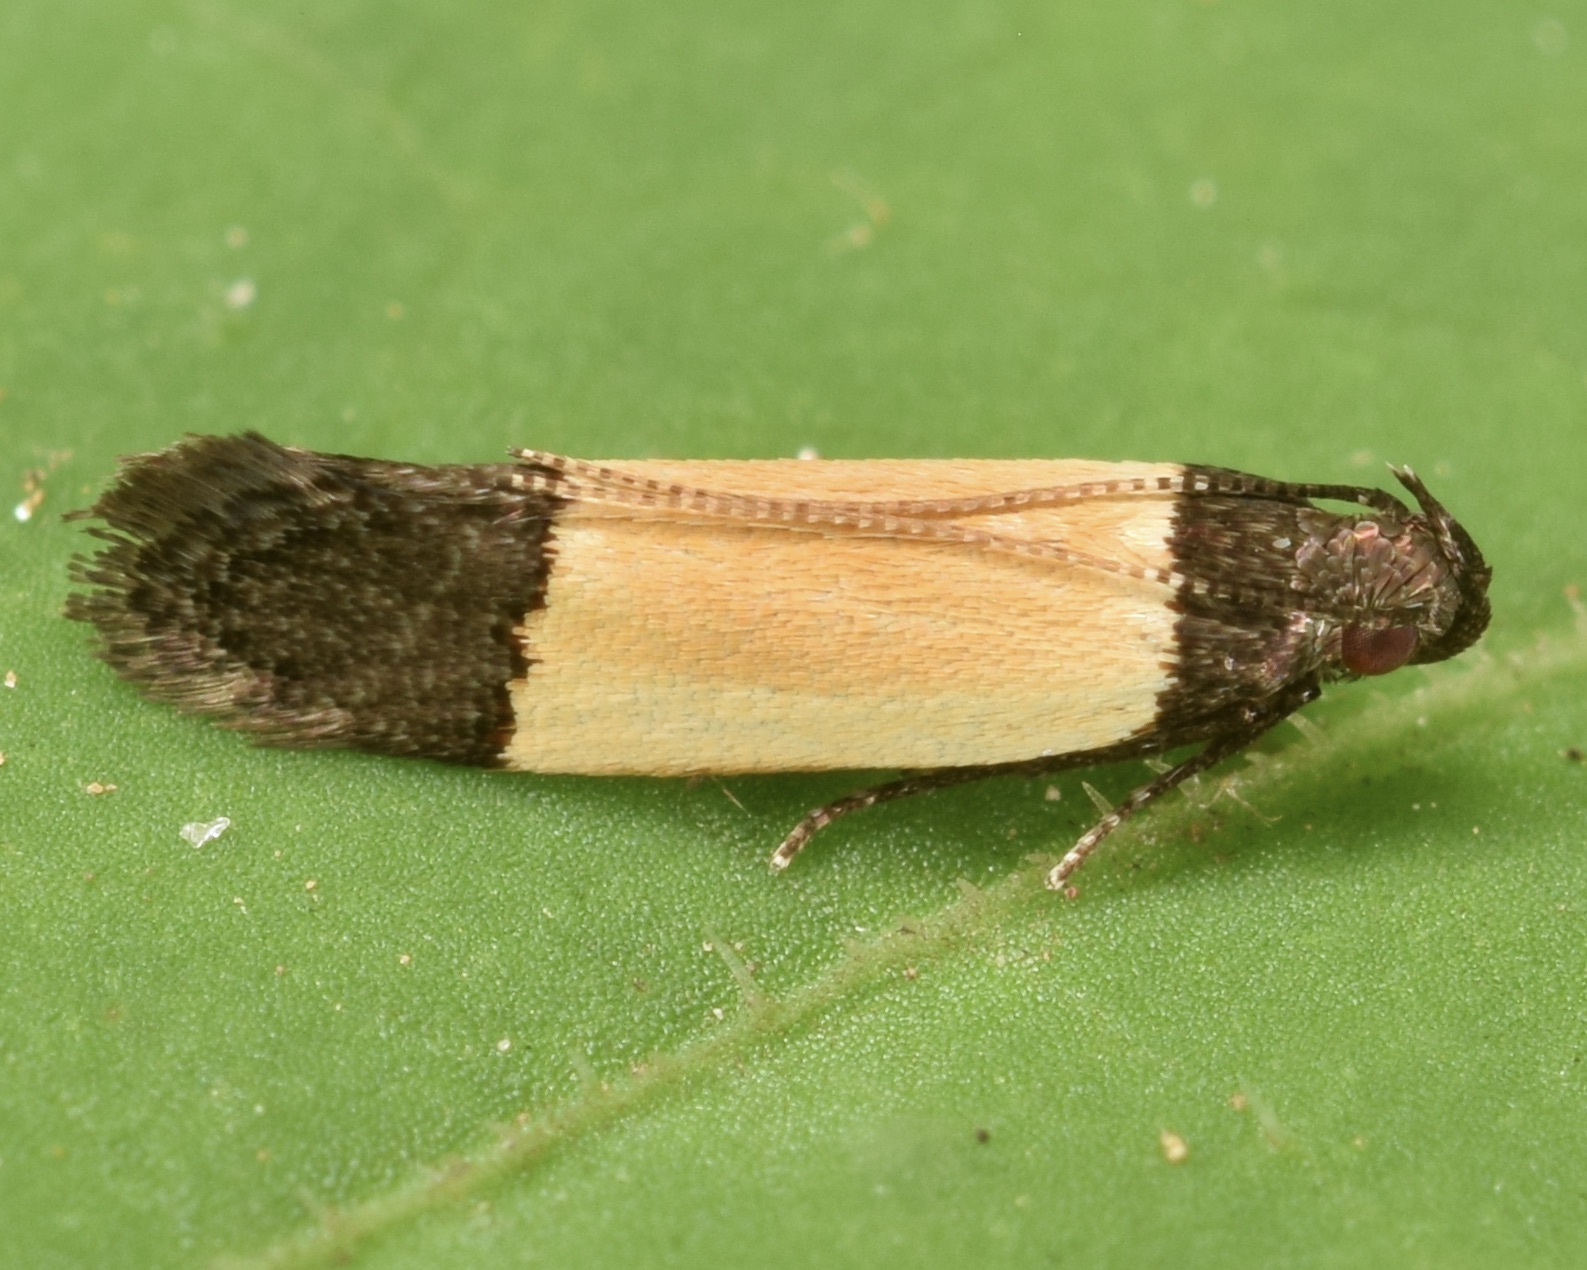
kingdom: Animalia
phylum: Arthropoda
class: Insecta
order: Lepidoptera
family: Gelechiidae
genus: Anacampsis
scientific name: Anacampsis coverdalella
